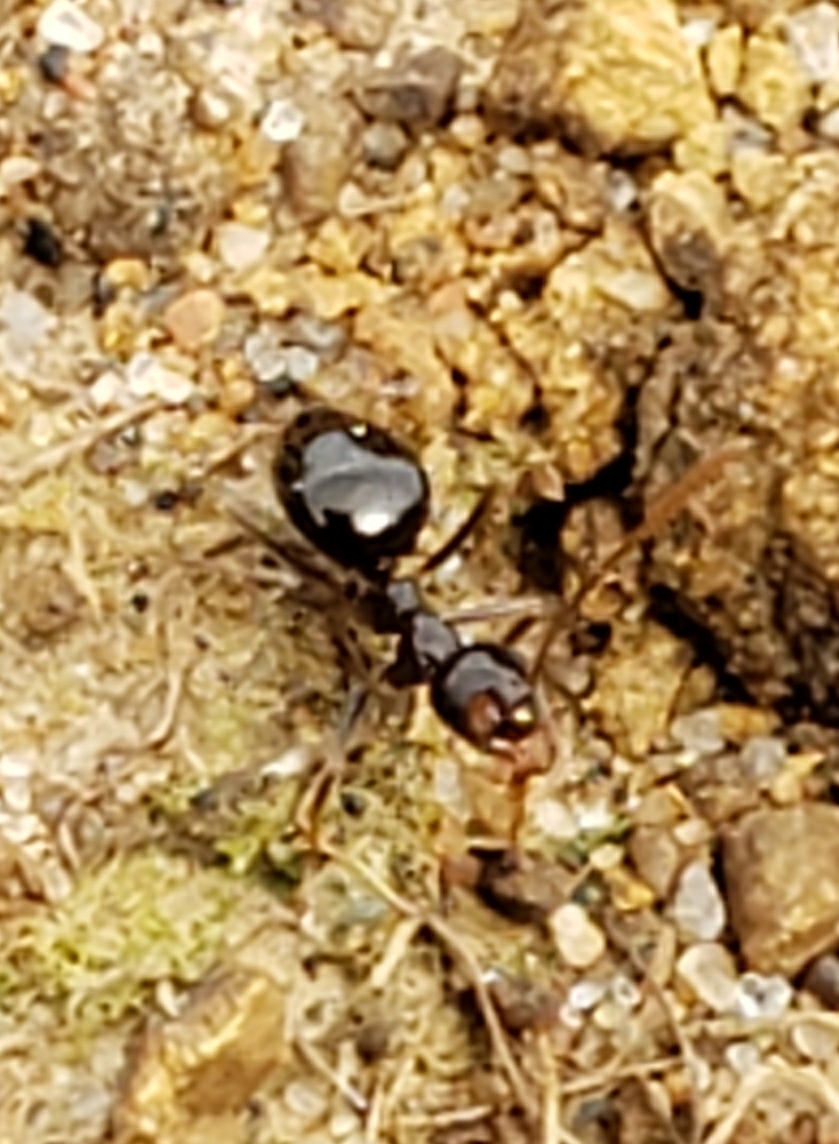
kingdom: Animalia
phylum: Arthropoda
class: Insecta
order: Hymenoptera
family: Formicidae
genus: Prenolepis
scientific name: Prenolepis imparis
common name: Small honey ant
